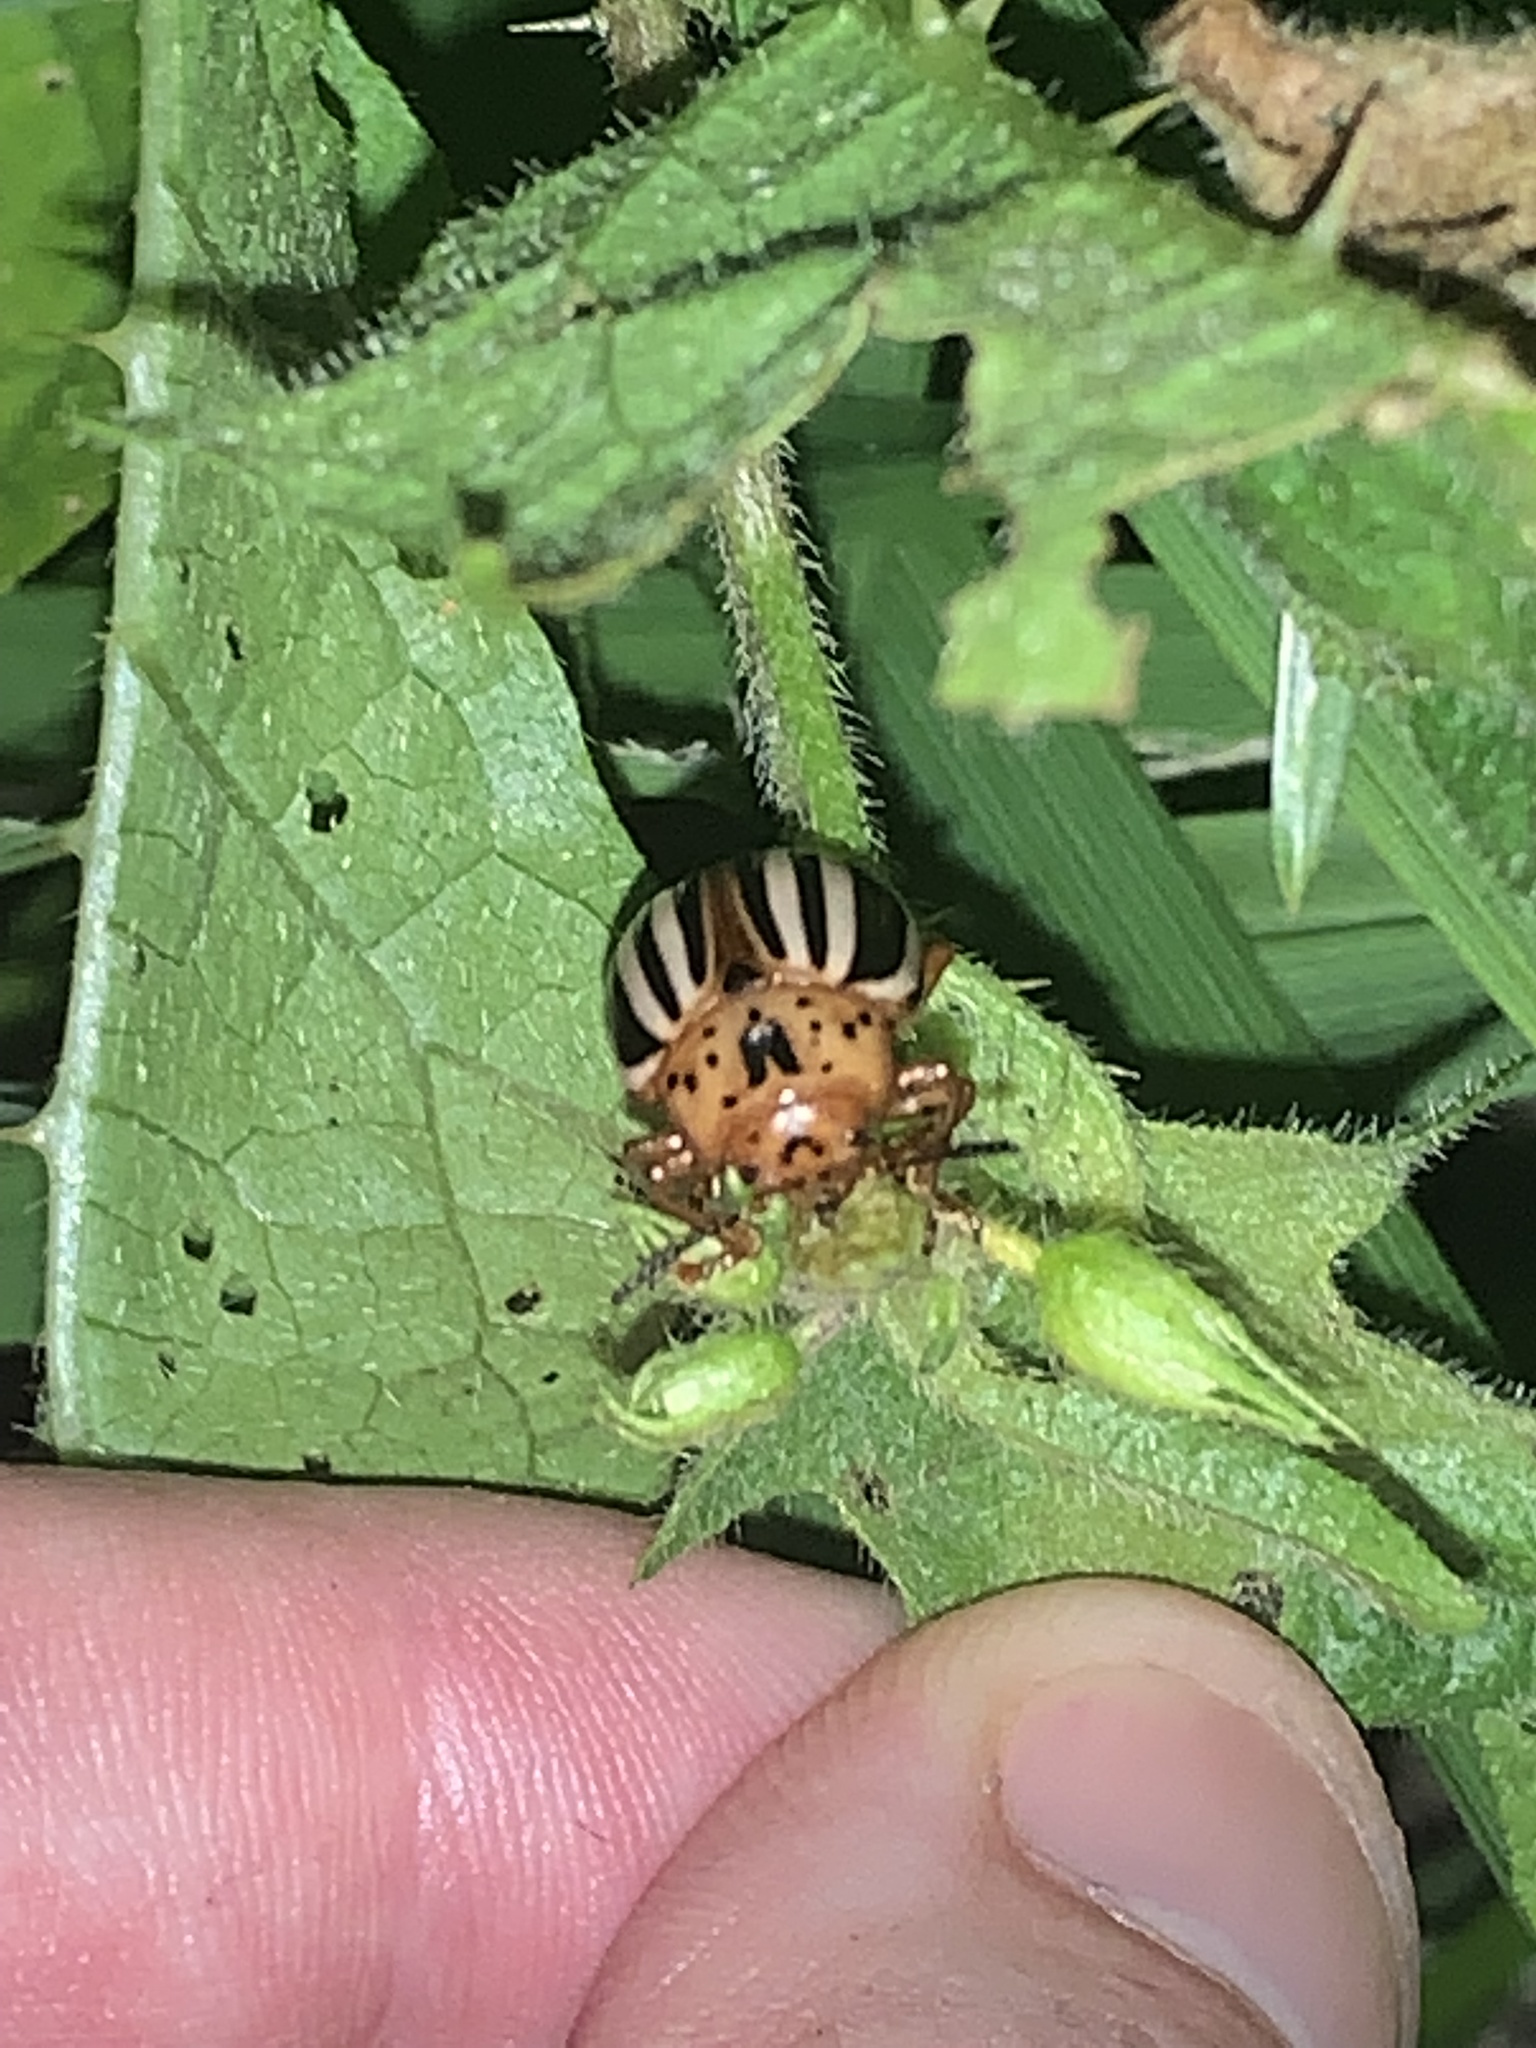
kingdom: Animalia
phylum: Arthropoda
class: Insecta
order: Coleoptera
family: Chrysomelidae
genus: Leptinotarsa
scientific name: Leptinotarsa juncta
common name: False potato beetle
